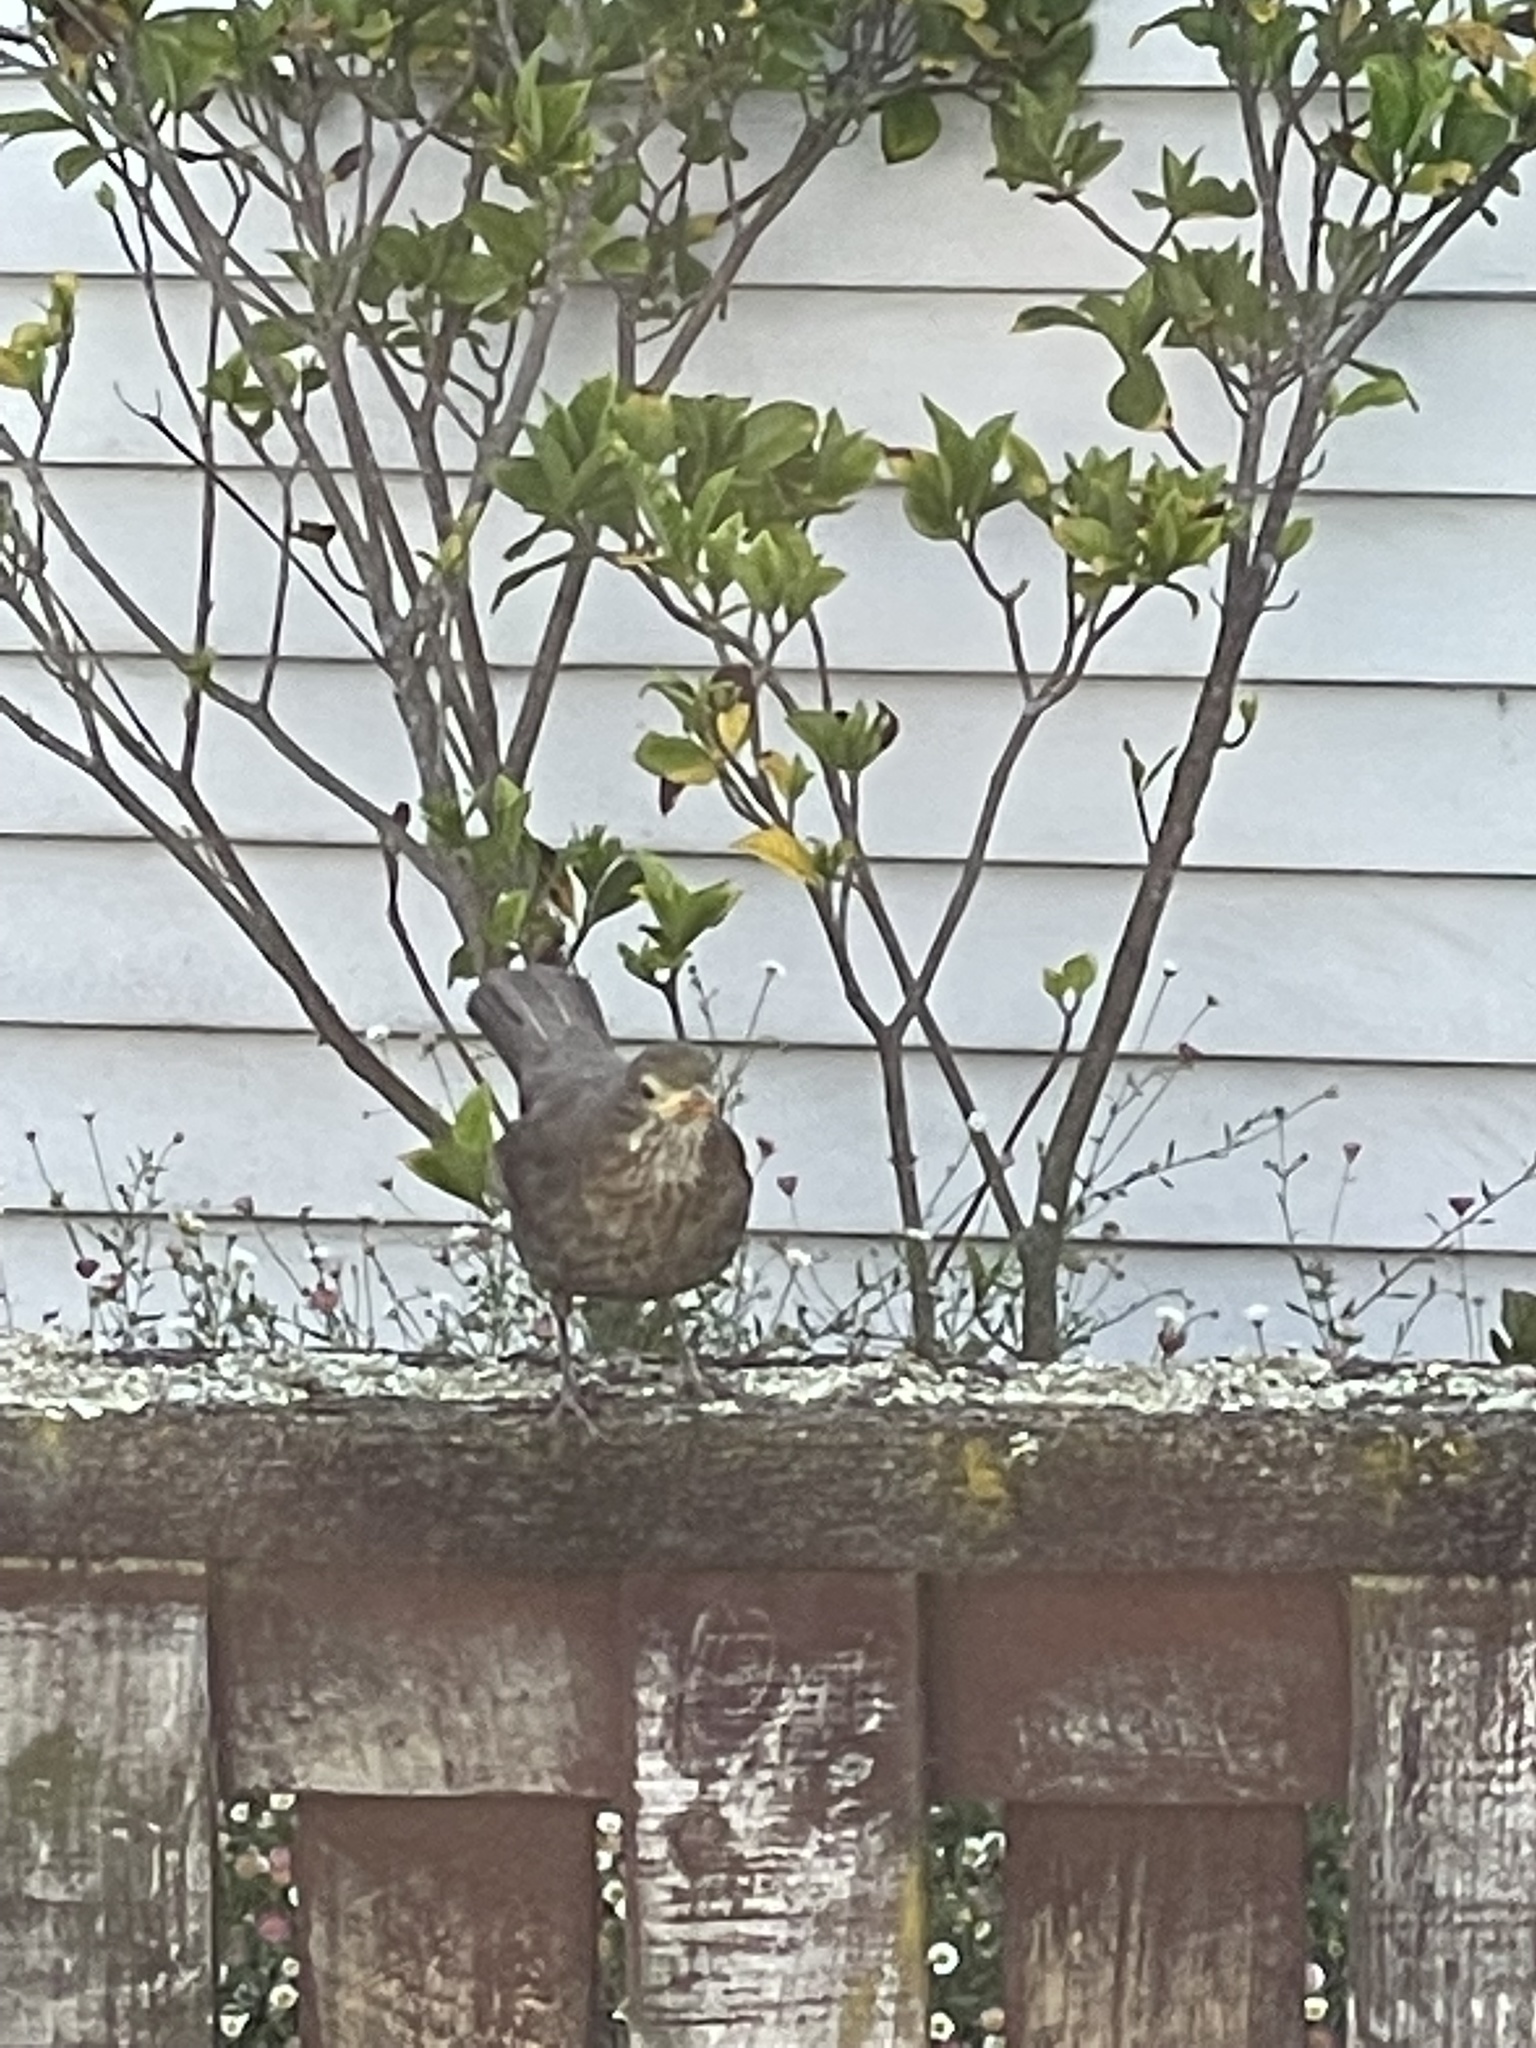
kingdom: Animalia
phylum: Chordata
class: Aves
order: Passeriformes
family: Turdidae
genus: Turdus
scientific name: Turdus merula
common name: Common blackbird
